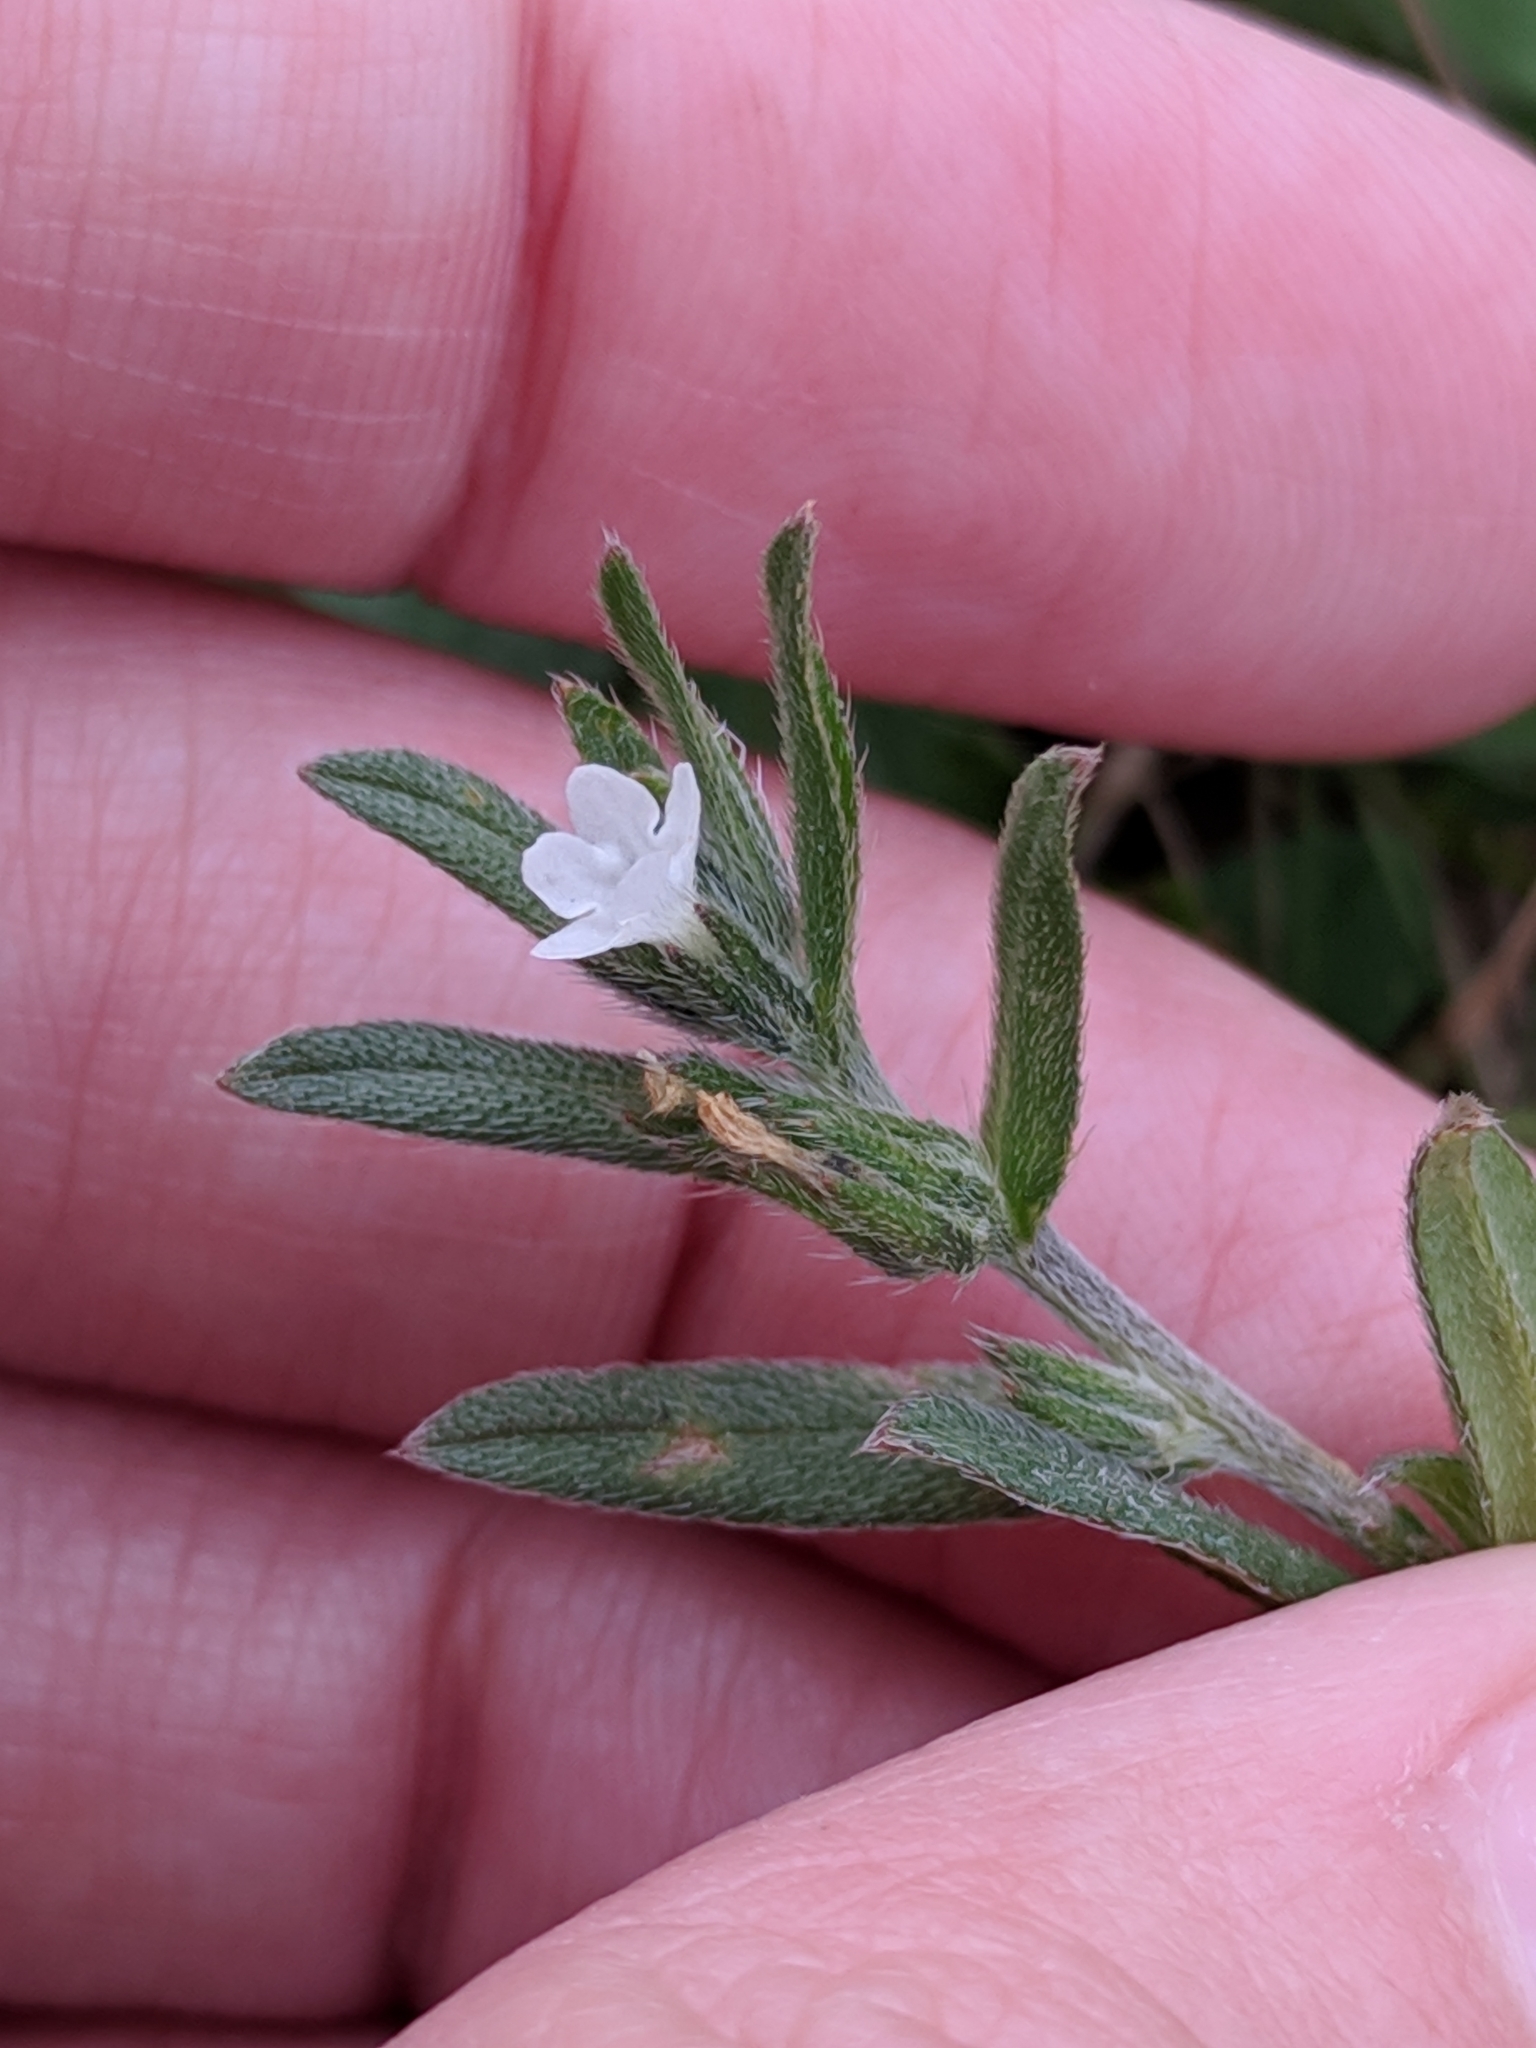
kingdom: Plantae
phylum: Tracheophyta
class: Magnoliopsida
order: Boraginales
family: Boraginaceae
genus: Buglossoides
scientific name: Buglossoides arvensis
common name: Corn gromwell
